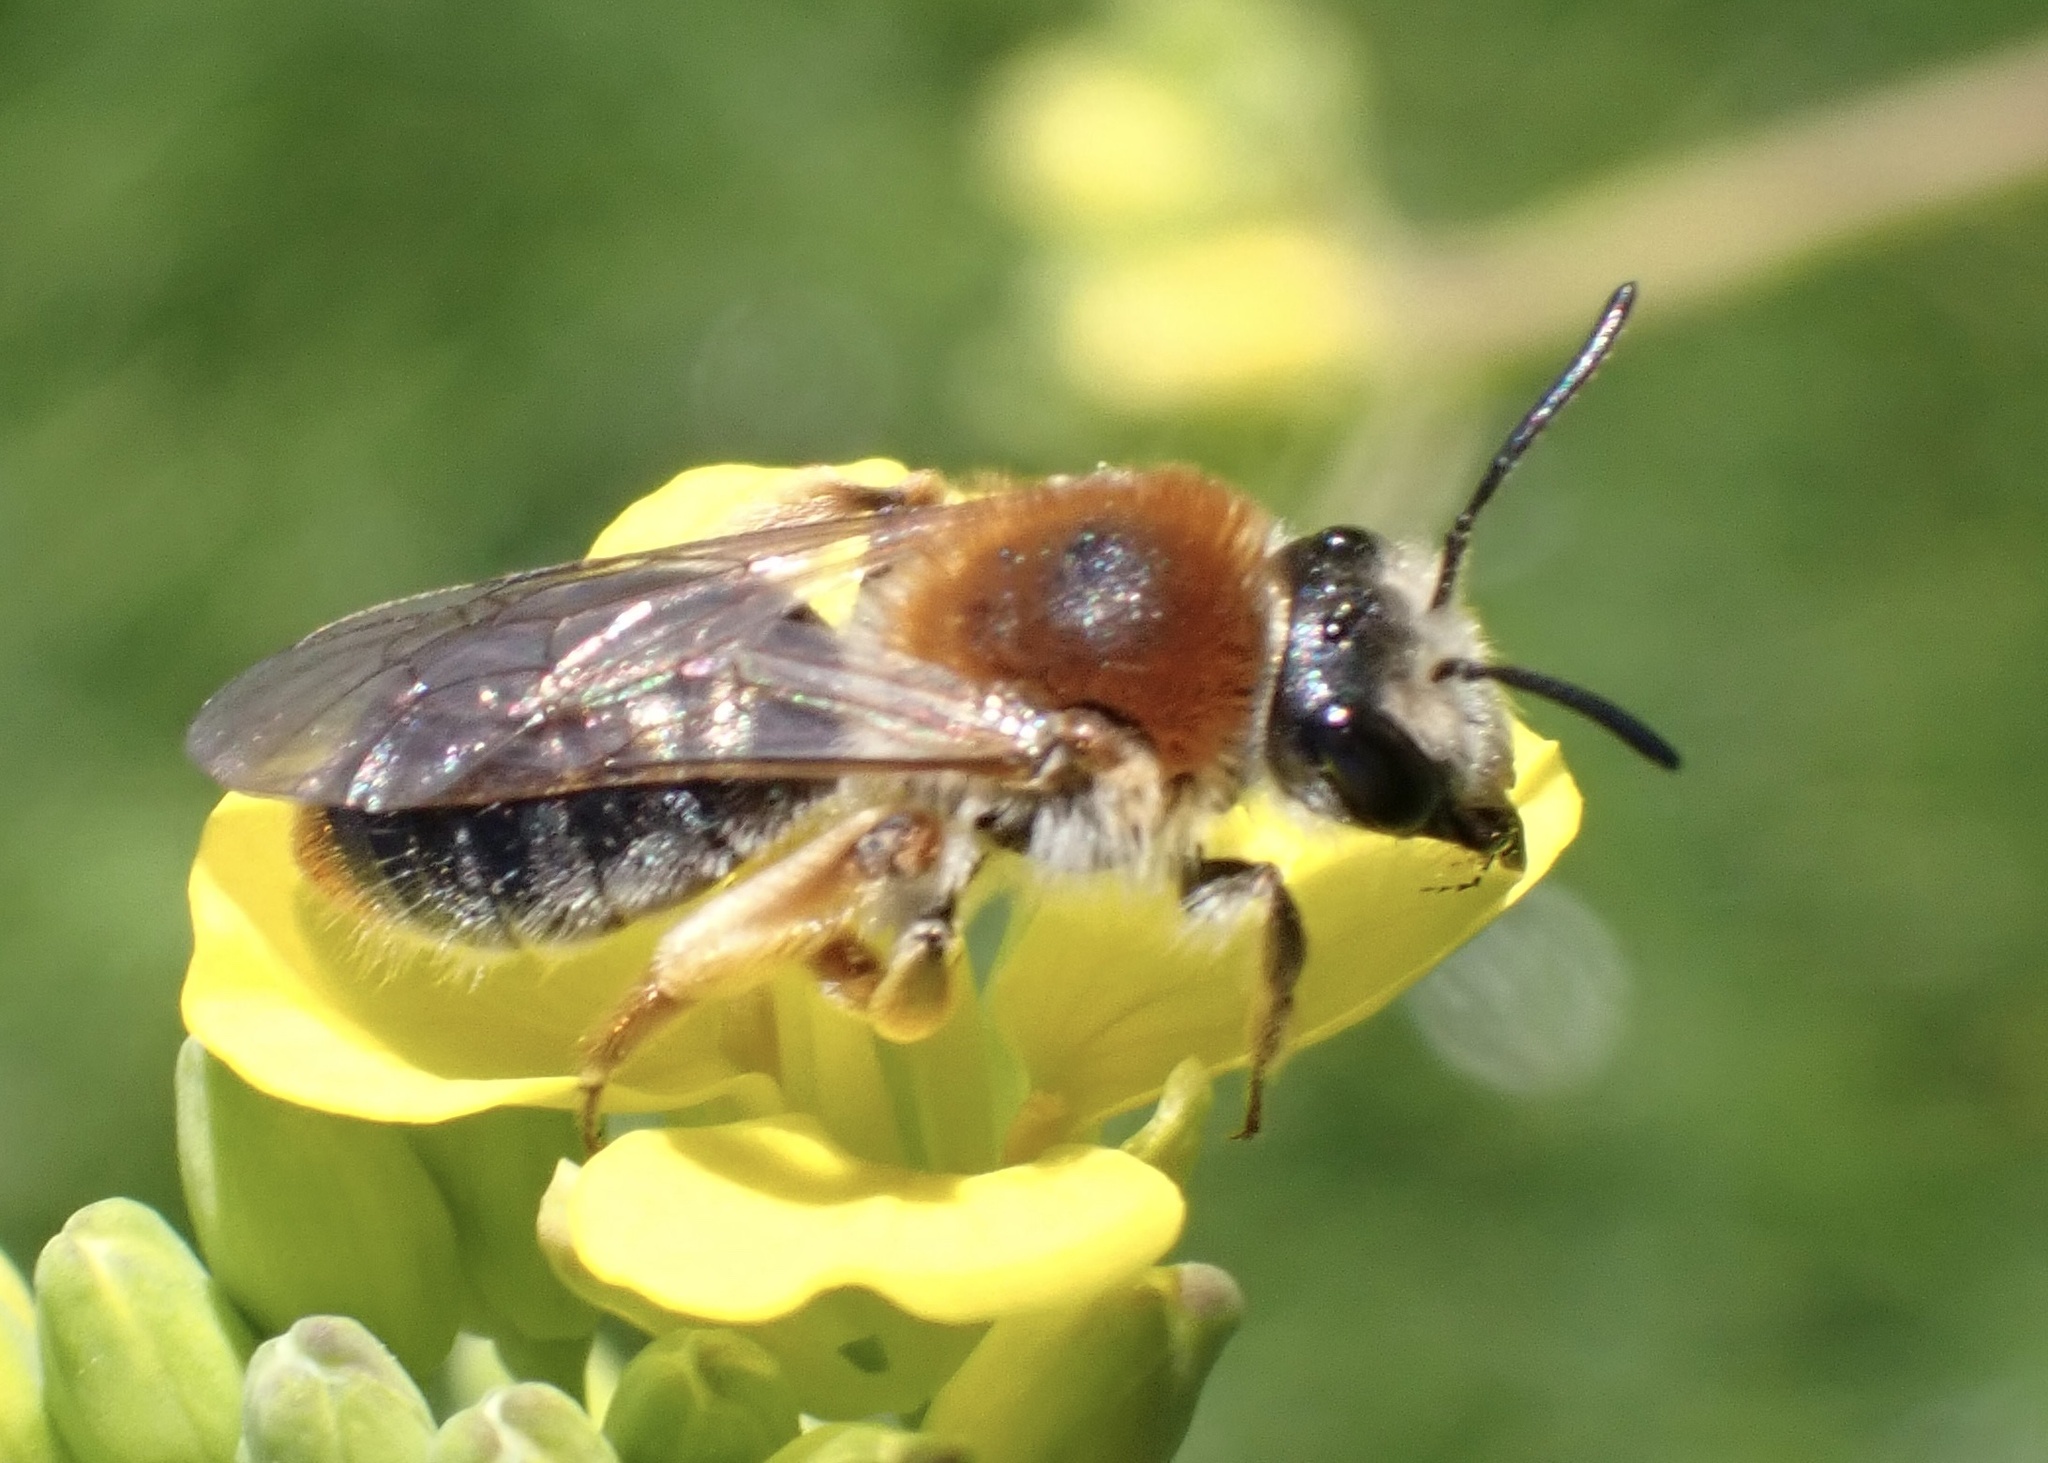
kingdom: Animalia
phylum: Arthropoda
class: Insecta
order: Hymenoptera
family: Andrenidae
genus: Andrena
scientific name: Andrena haemorrhoa
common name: Early mining bee
